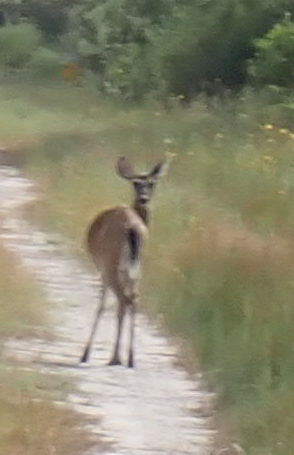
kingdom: Animalia
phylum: Chordata
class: Mammalia
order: Artiodactyla
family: Cervidae
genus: Odocoileus
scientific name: Odocoileus virginianus
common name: White-tailed deer
